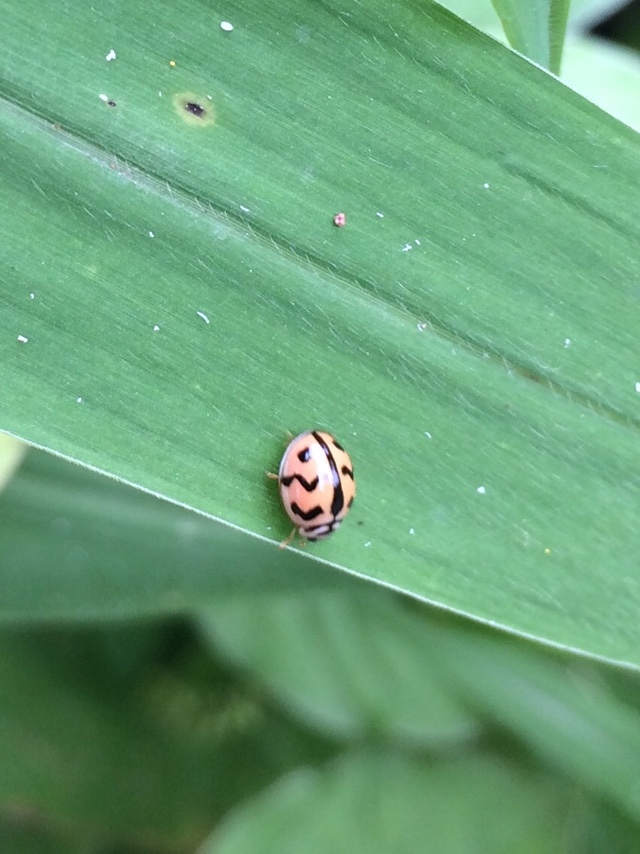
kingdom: Animalia
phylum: Arthropoda
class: Insecta
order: Coleoptera
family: Coccinellidae
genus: Cheilomenes
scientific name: Cheilomenes sexmaculata
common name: Ladybird beetle
